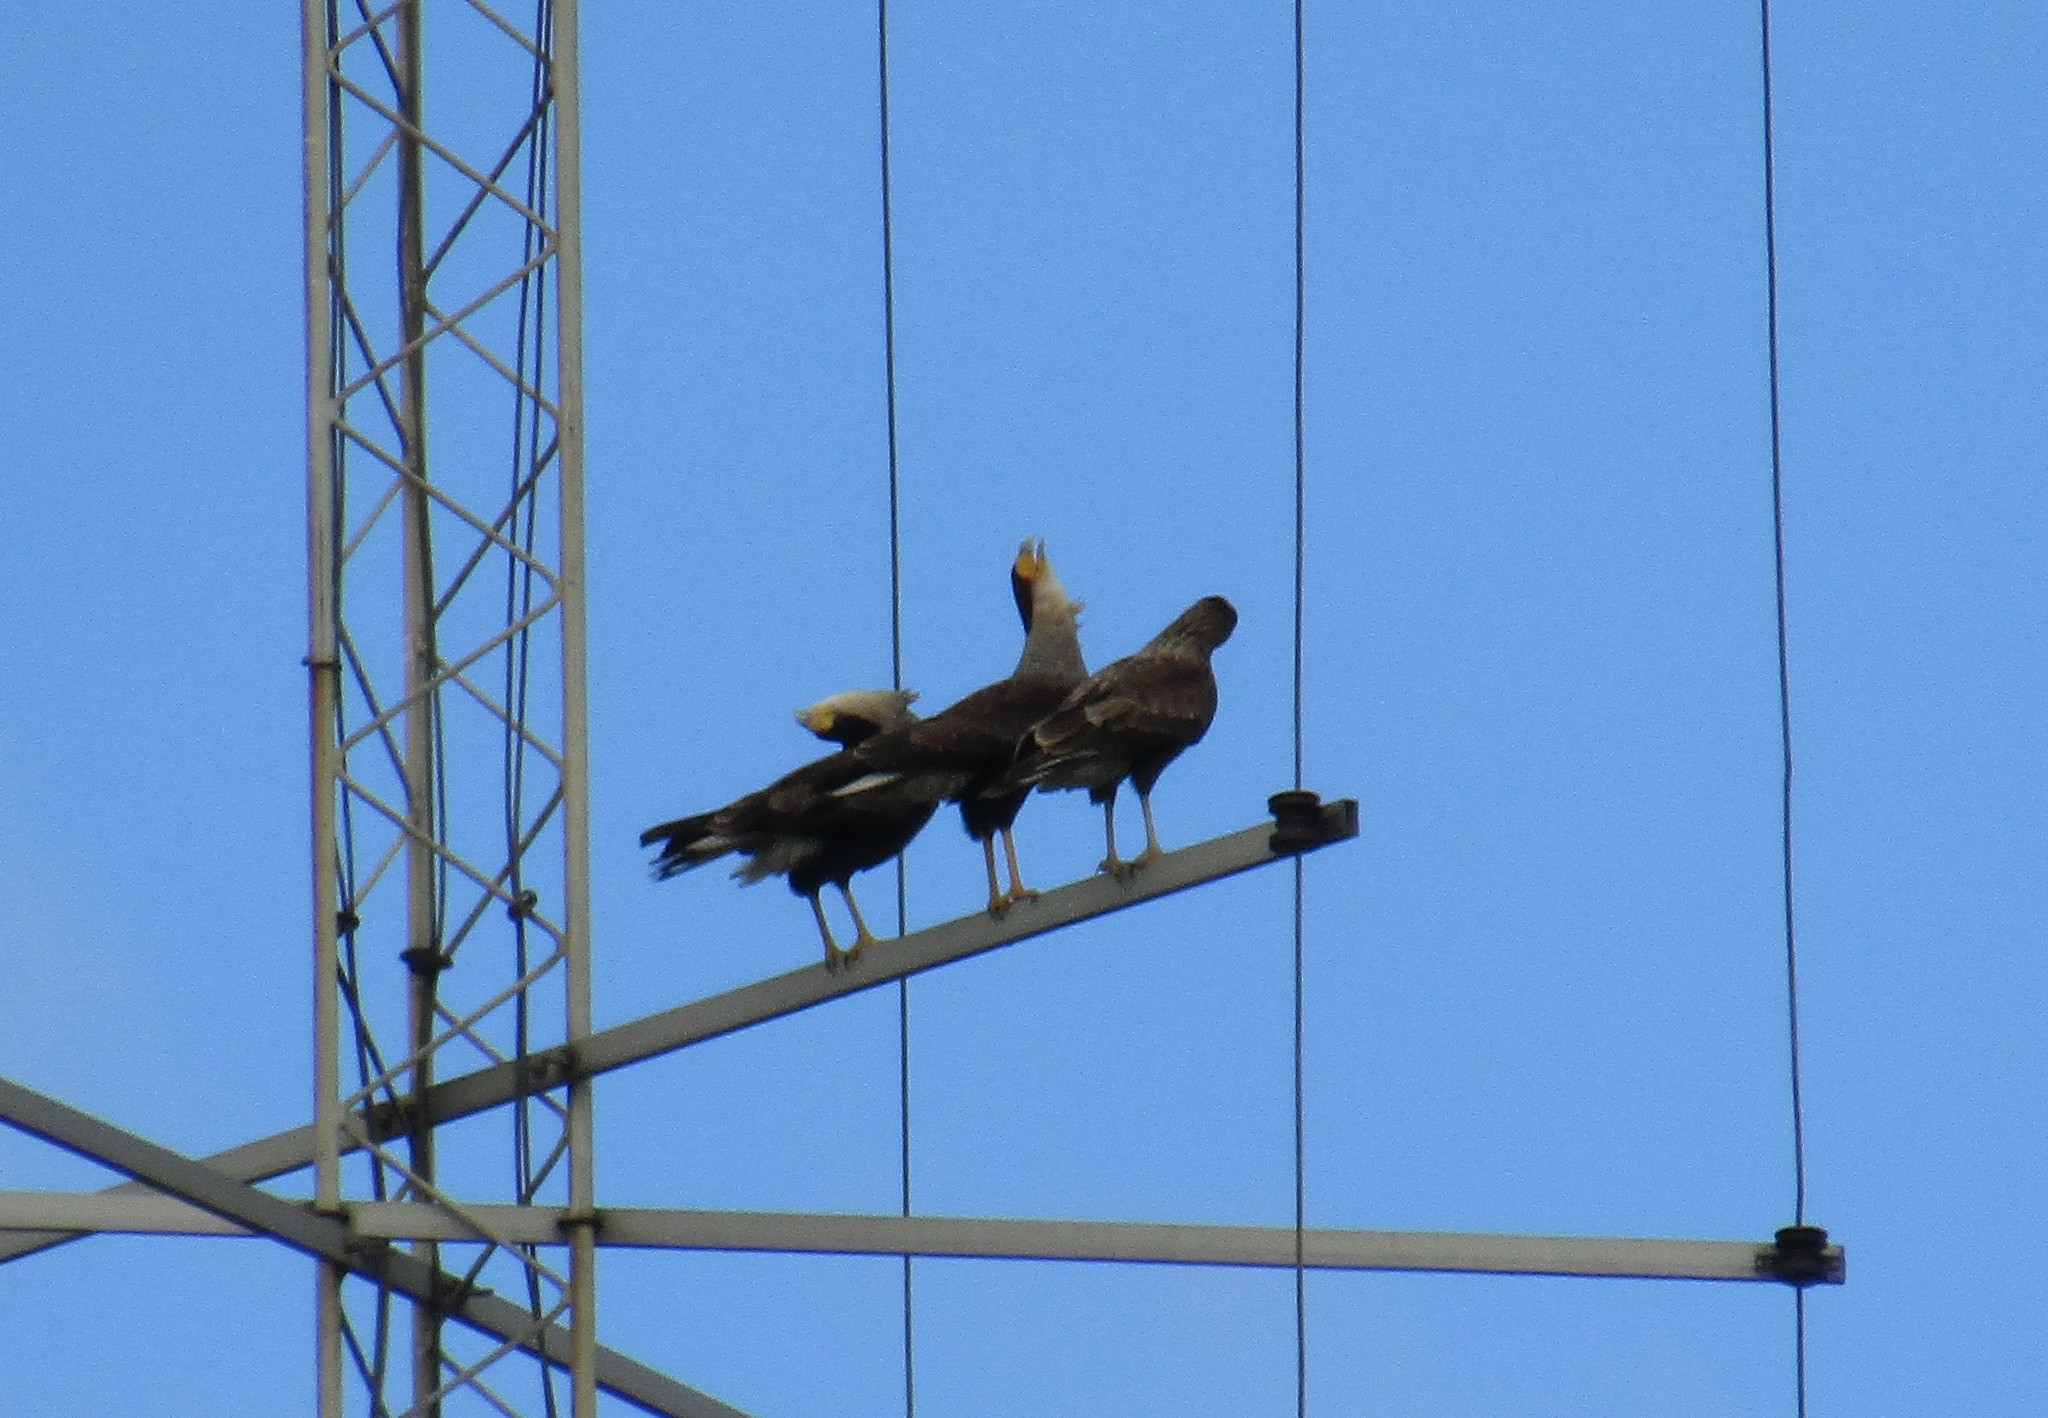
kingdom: Animalia
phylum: Chordata
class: Aves
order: Falconiformes
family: Falconidae
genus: Caracara
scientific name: Caracara plancus
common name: Southern caracara
